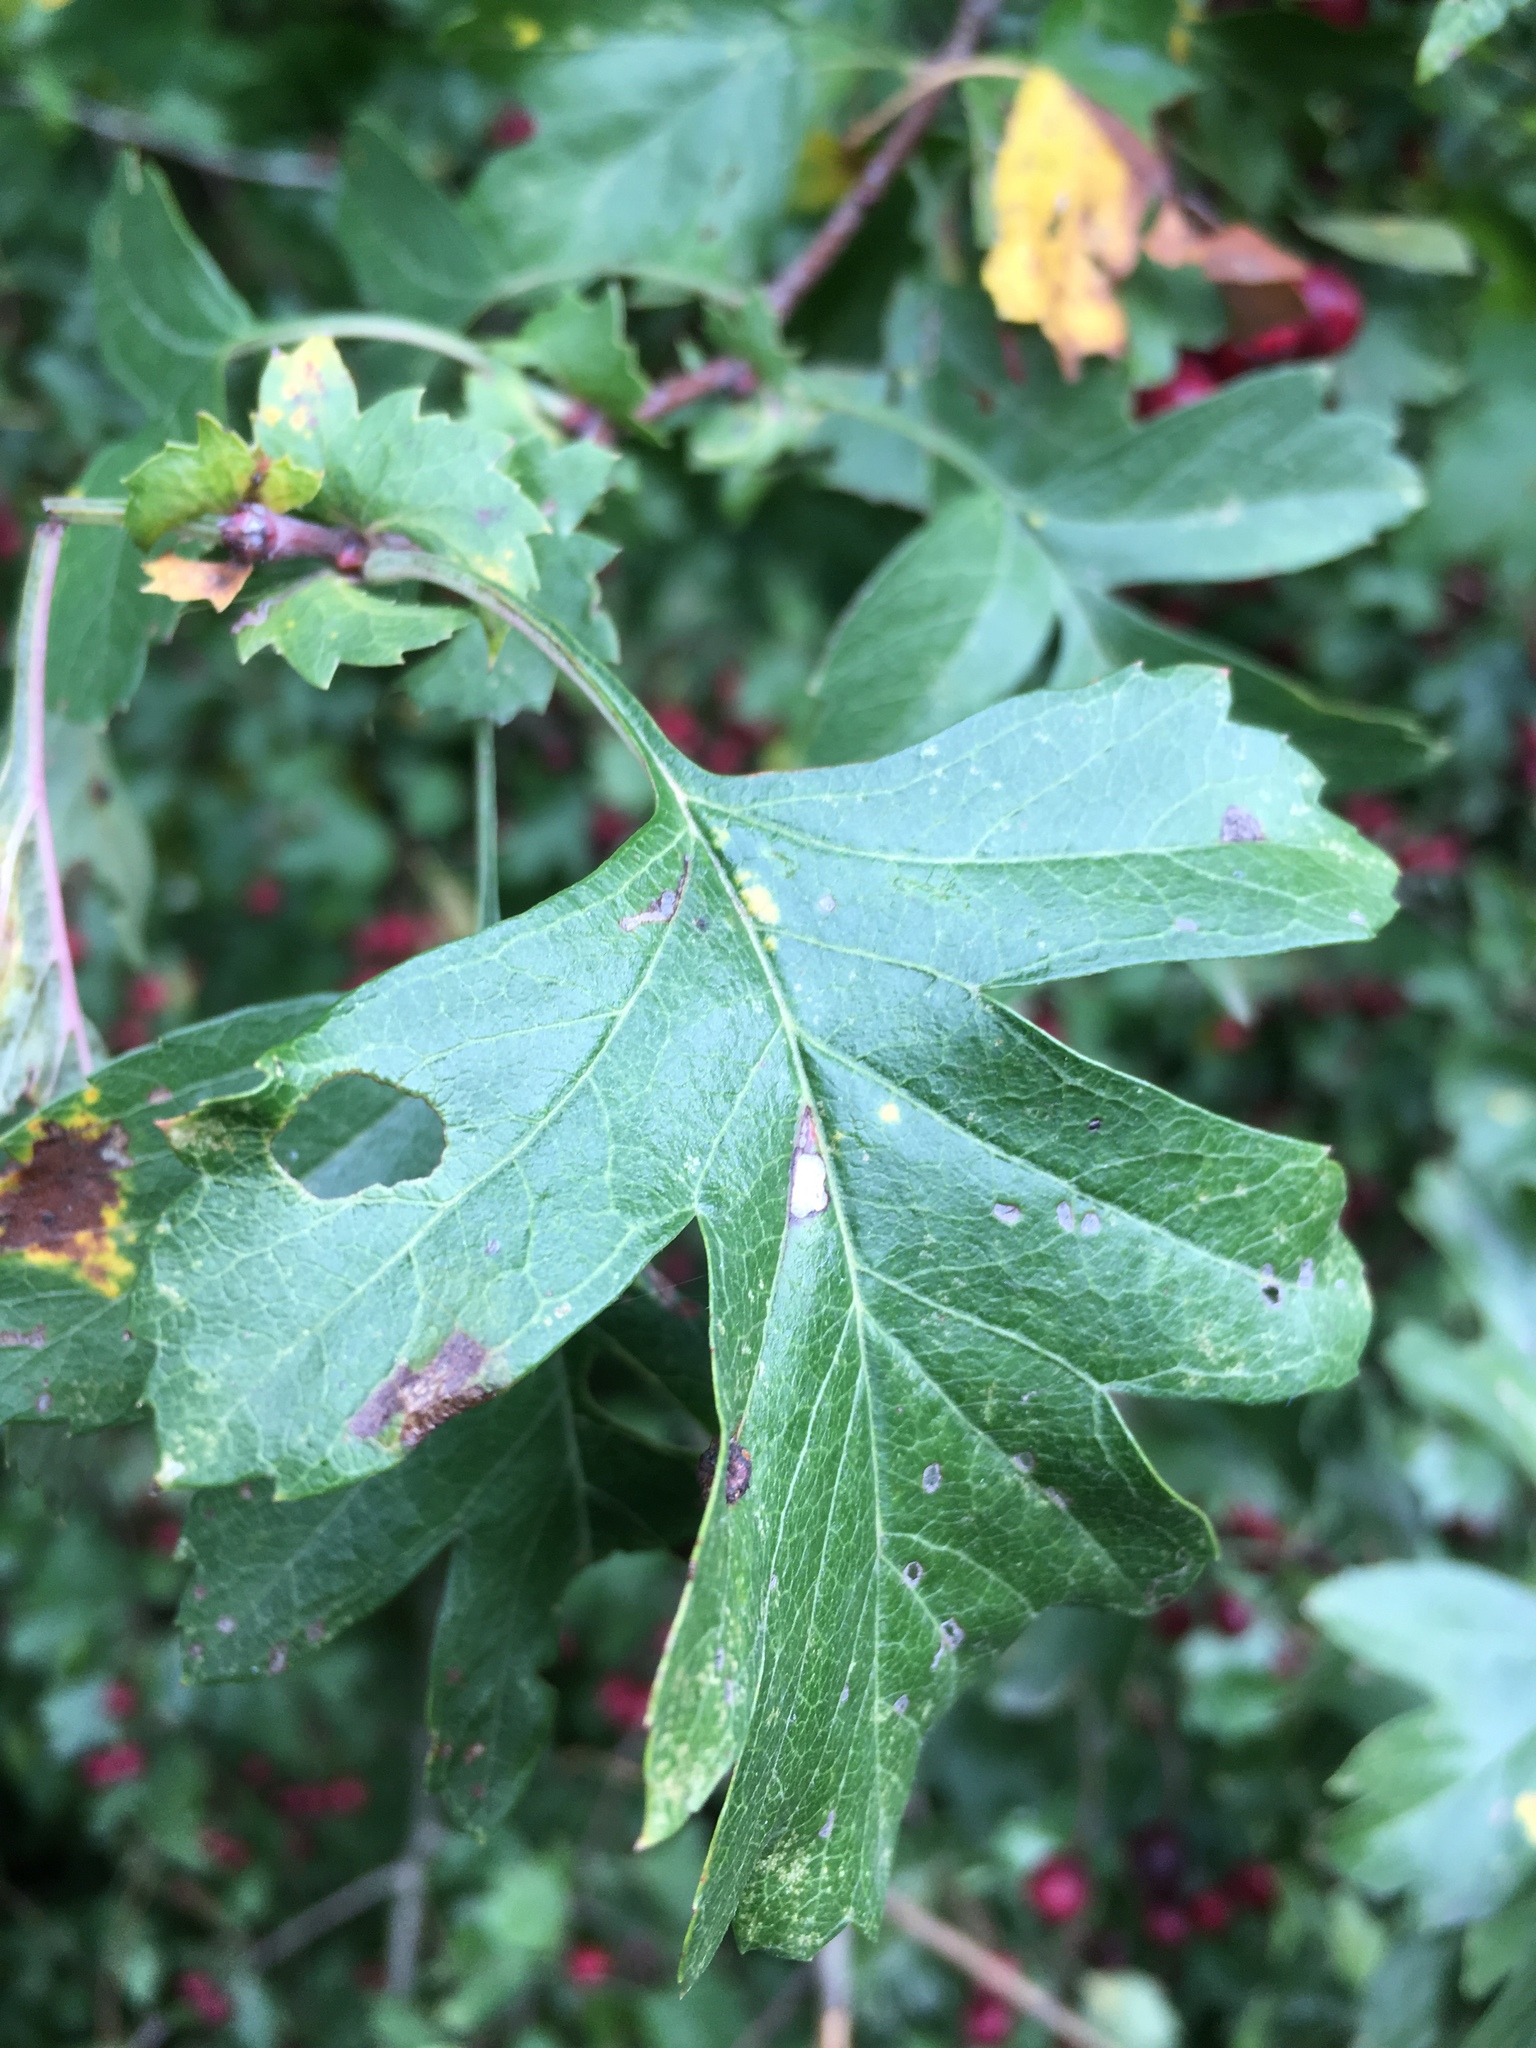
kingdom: Plantae
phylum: Tracheophyta
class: Magnoliopsida
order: Rosales
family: Rosaceae
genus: Crataegus
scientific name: Crataegus laevigata
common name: Midland hawthorn
